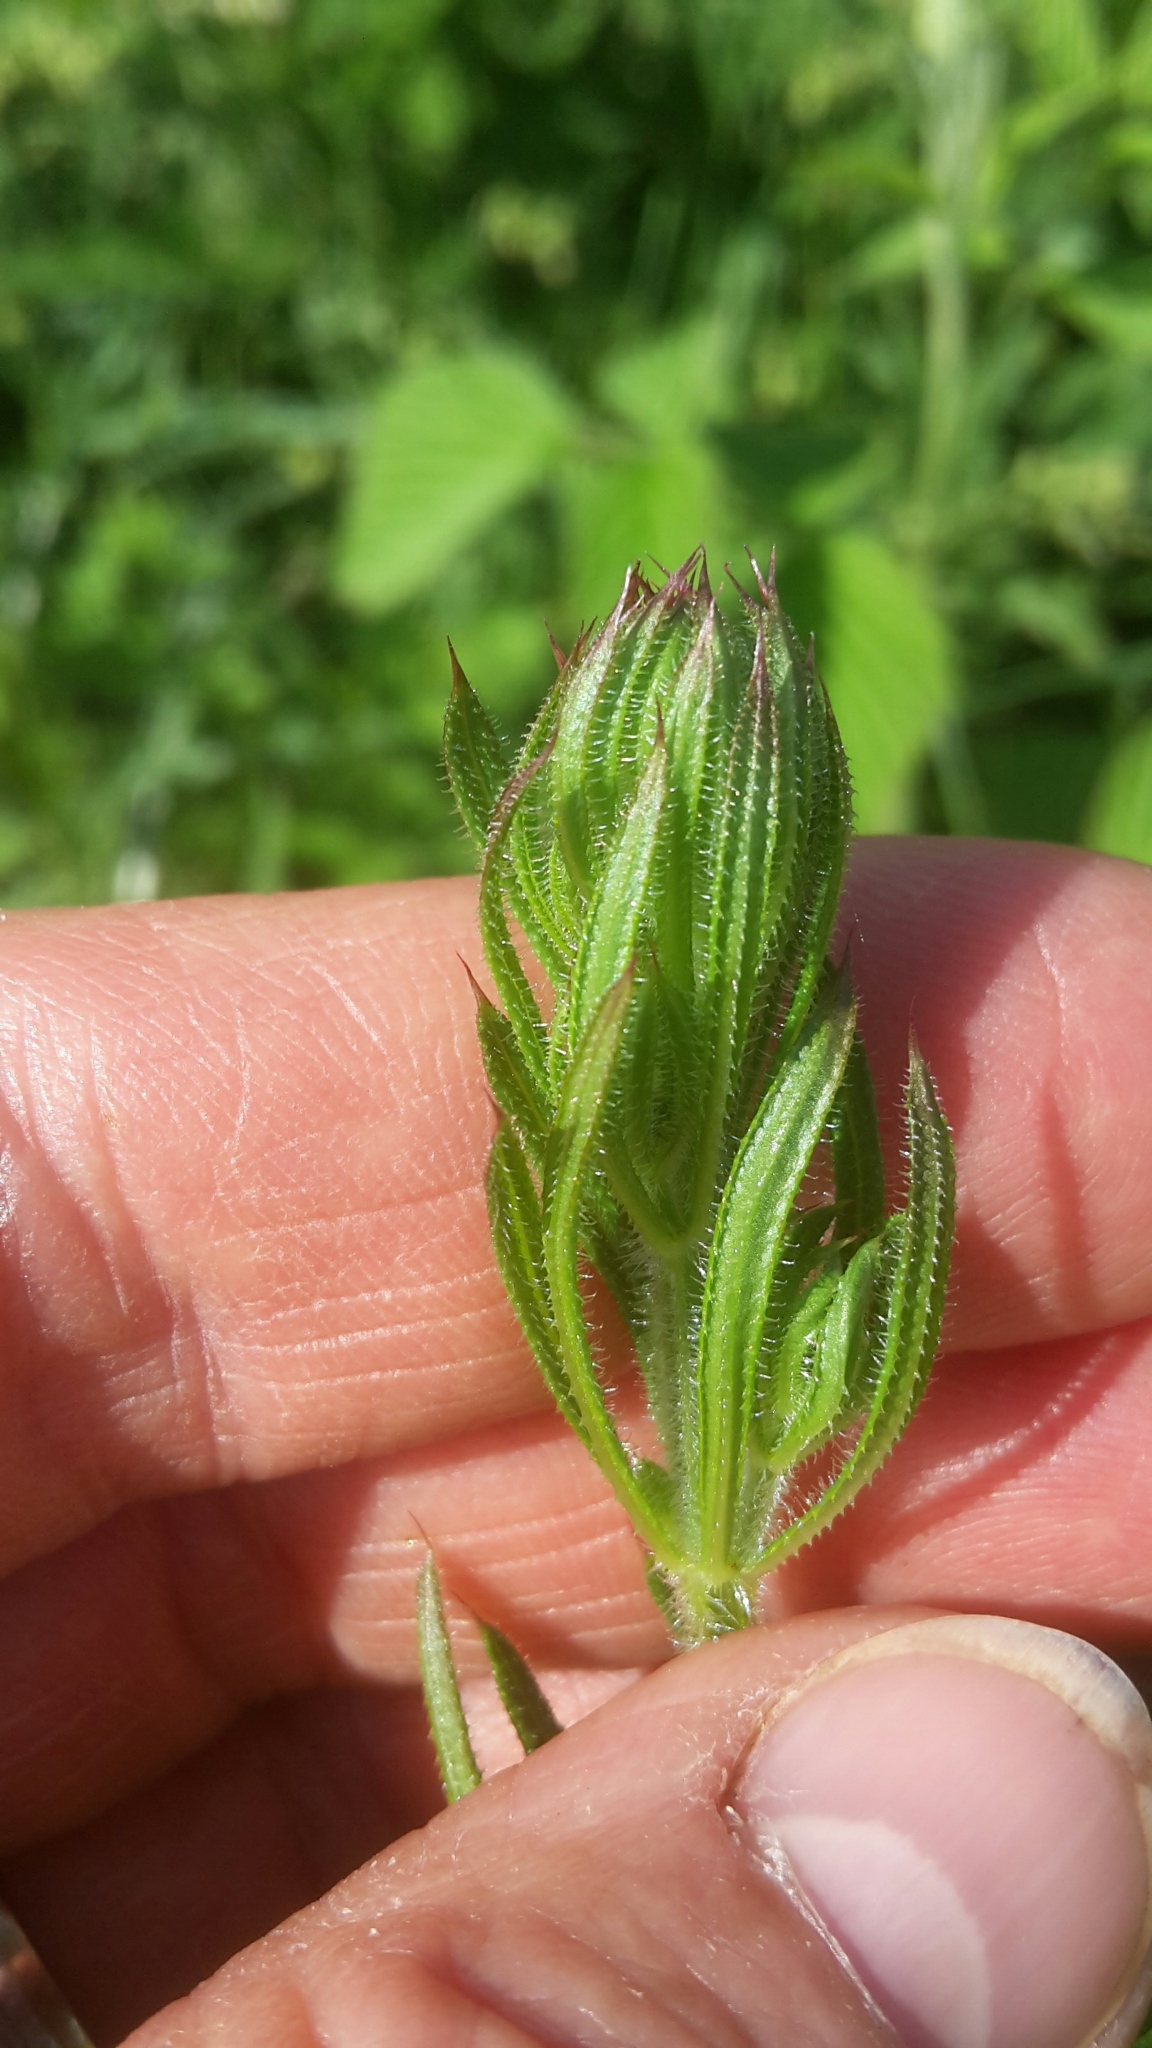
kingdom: Plantae
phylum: Tracheophyta
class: Magnoliopsida
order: Gentianales
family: Rubiaceae
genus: Galium
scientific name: Galium aparine
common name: Cleavers
